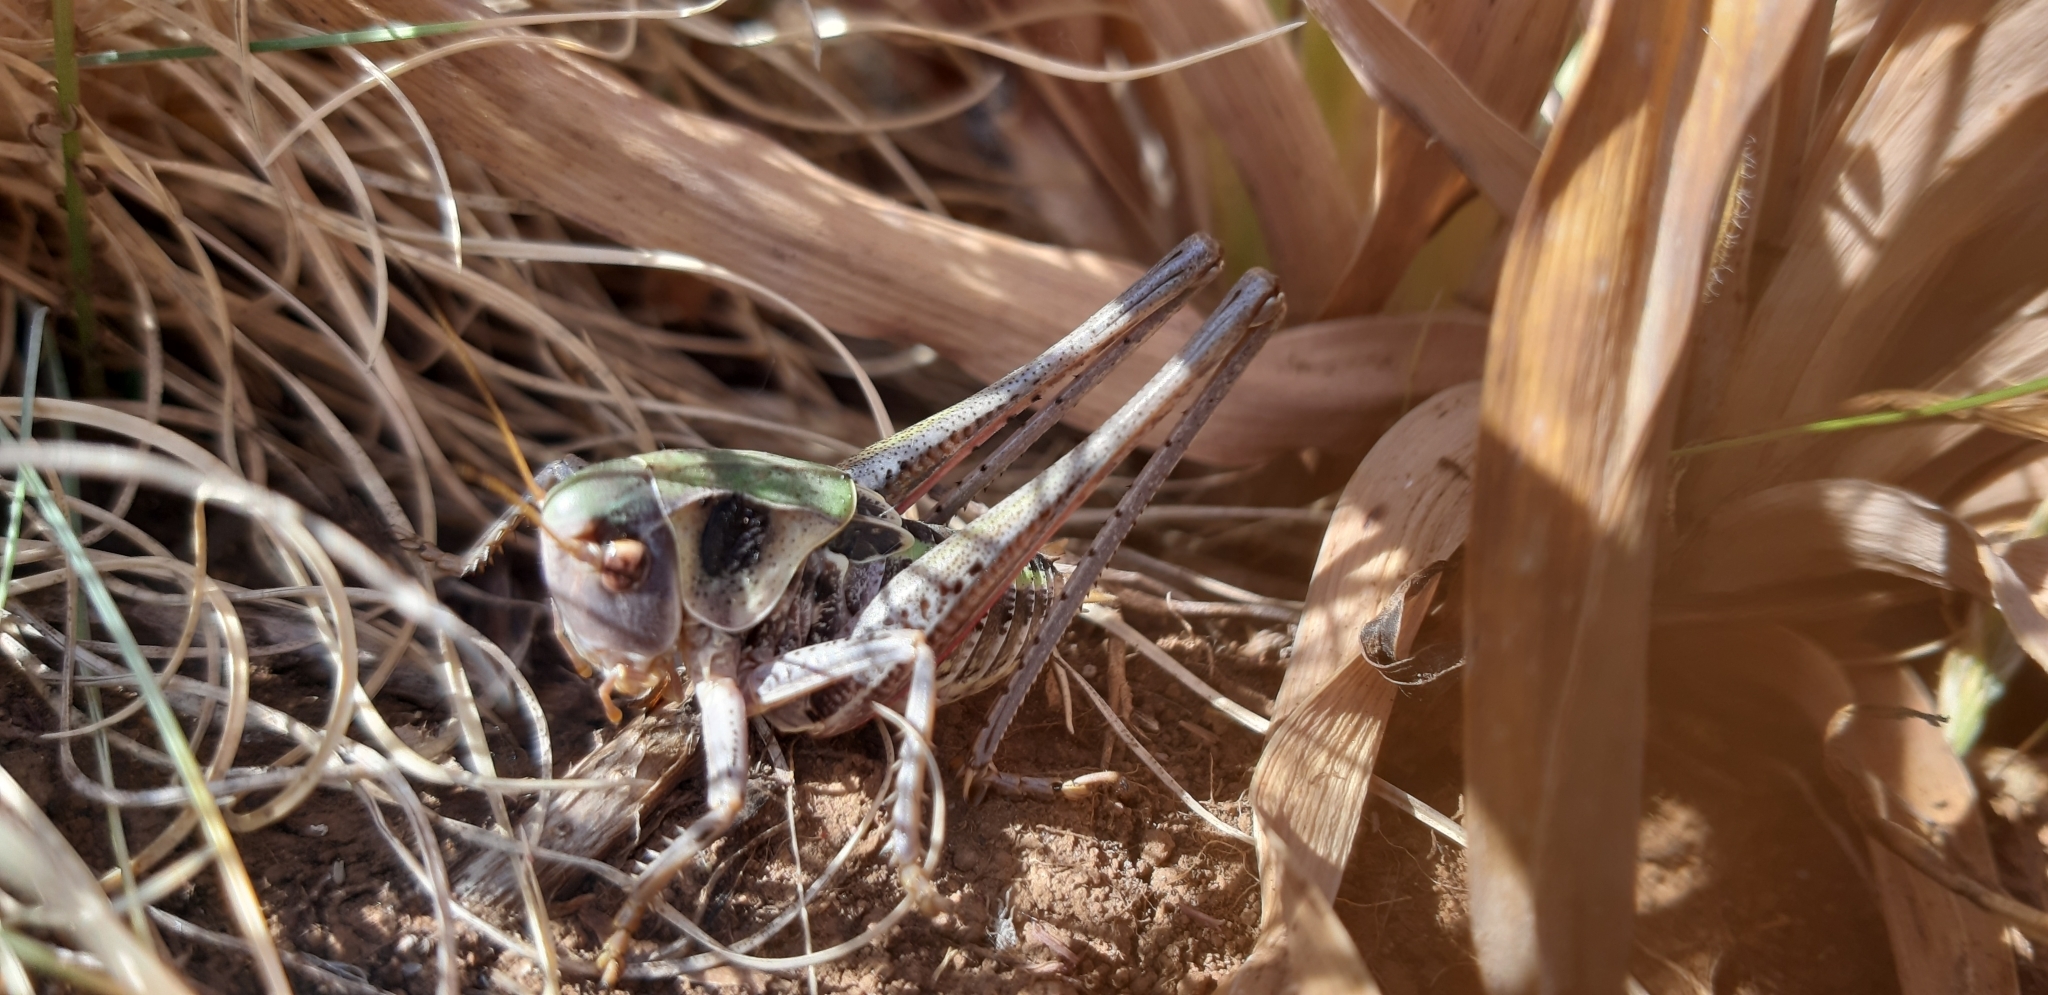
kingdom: Animalia
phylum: Arthropoda
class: Insecta
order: Orthoptera
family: Tettigoniidae
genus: Decticus
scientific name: Decticus loudoni
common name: Apulian wart-biter
